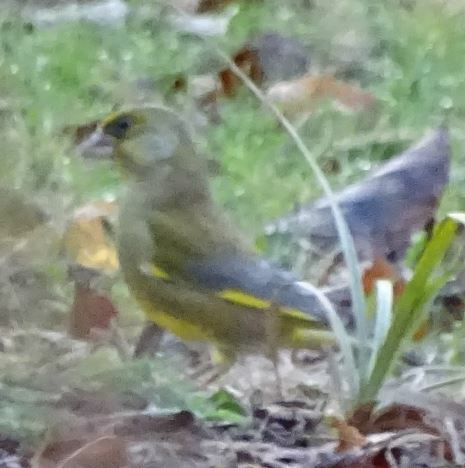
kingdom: Plantae
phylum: Tracheophyta
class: Liliopsida
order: Poales
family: Poaceae
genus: Chloris
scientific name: Chloris chloris
